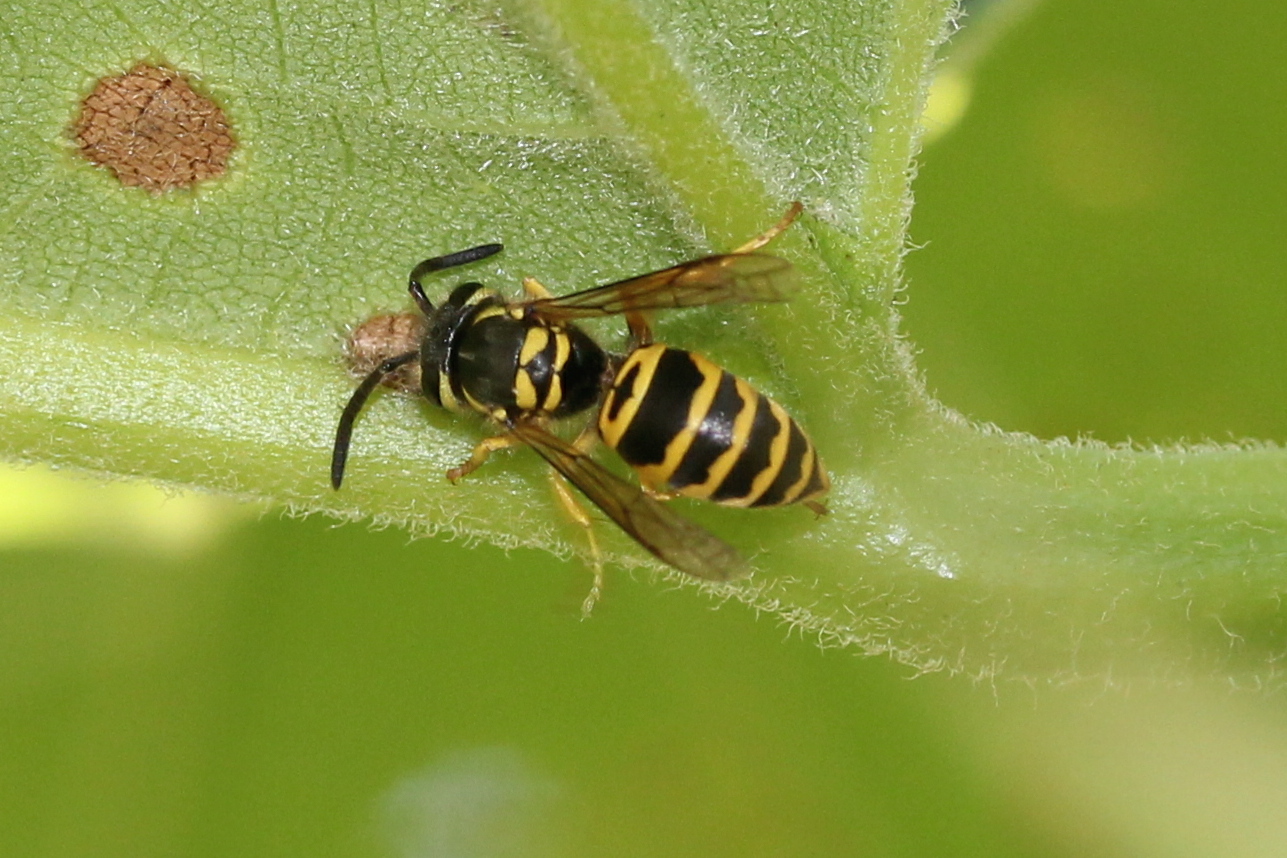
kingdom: Animalia
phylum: Arthropoda
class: Insecta
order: Hymenoptera
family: Vespidae
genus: Vespula
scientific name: Vespula maculifrons
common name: Eastern yellowjacket
